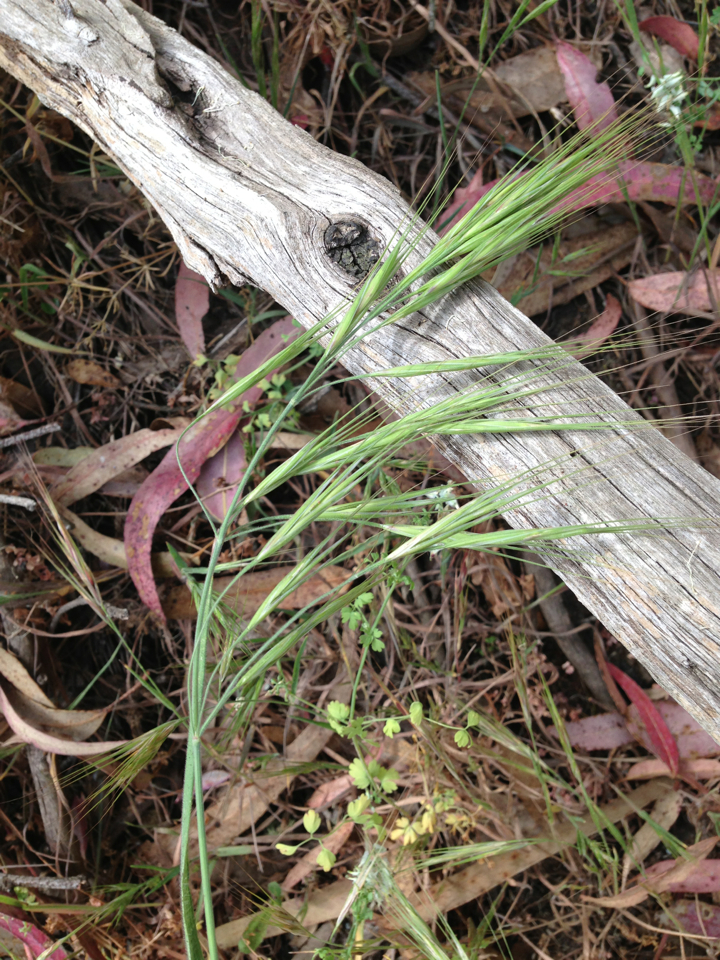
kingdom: Plantae
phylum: Tracheophyta
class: Liliopsida
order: Poales
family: Poaceae
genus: Bromus
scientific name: Bromus diandrus
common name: Ripgut brome
